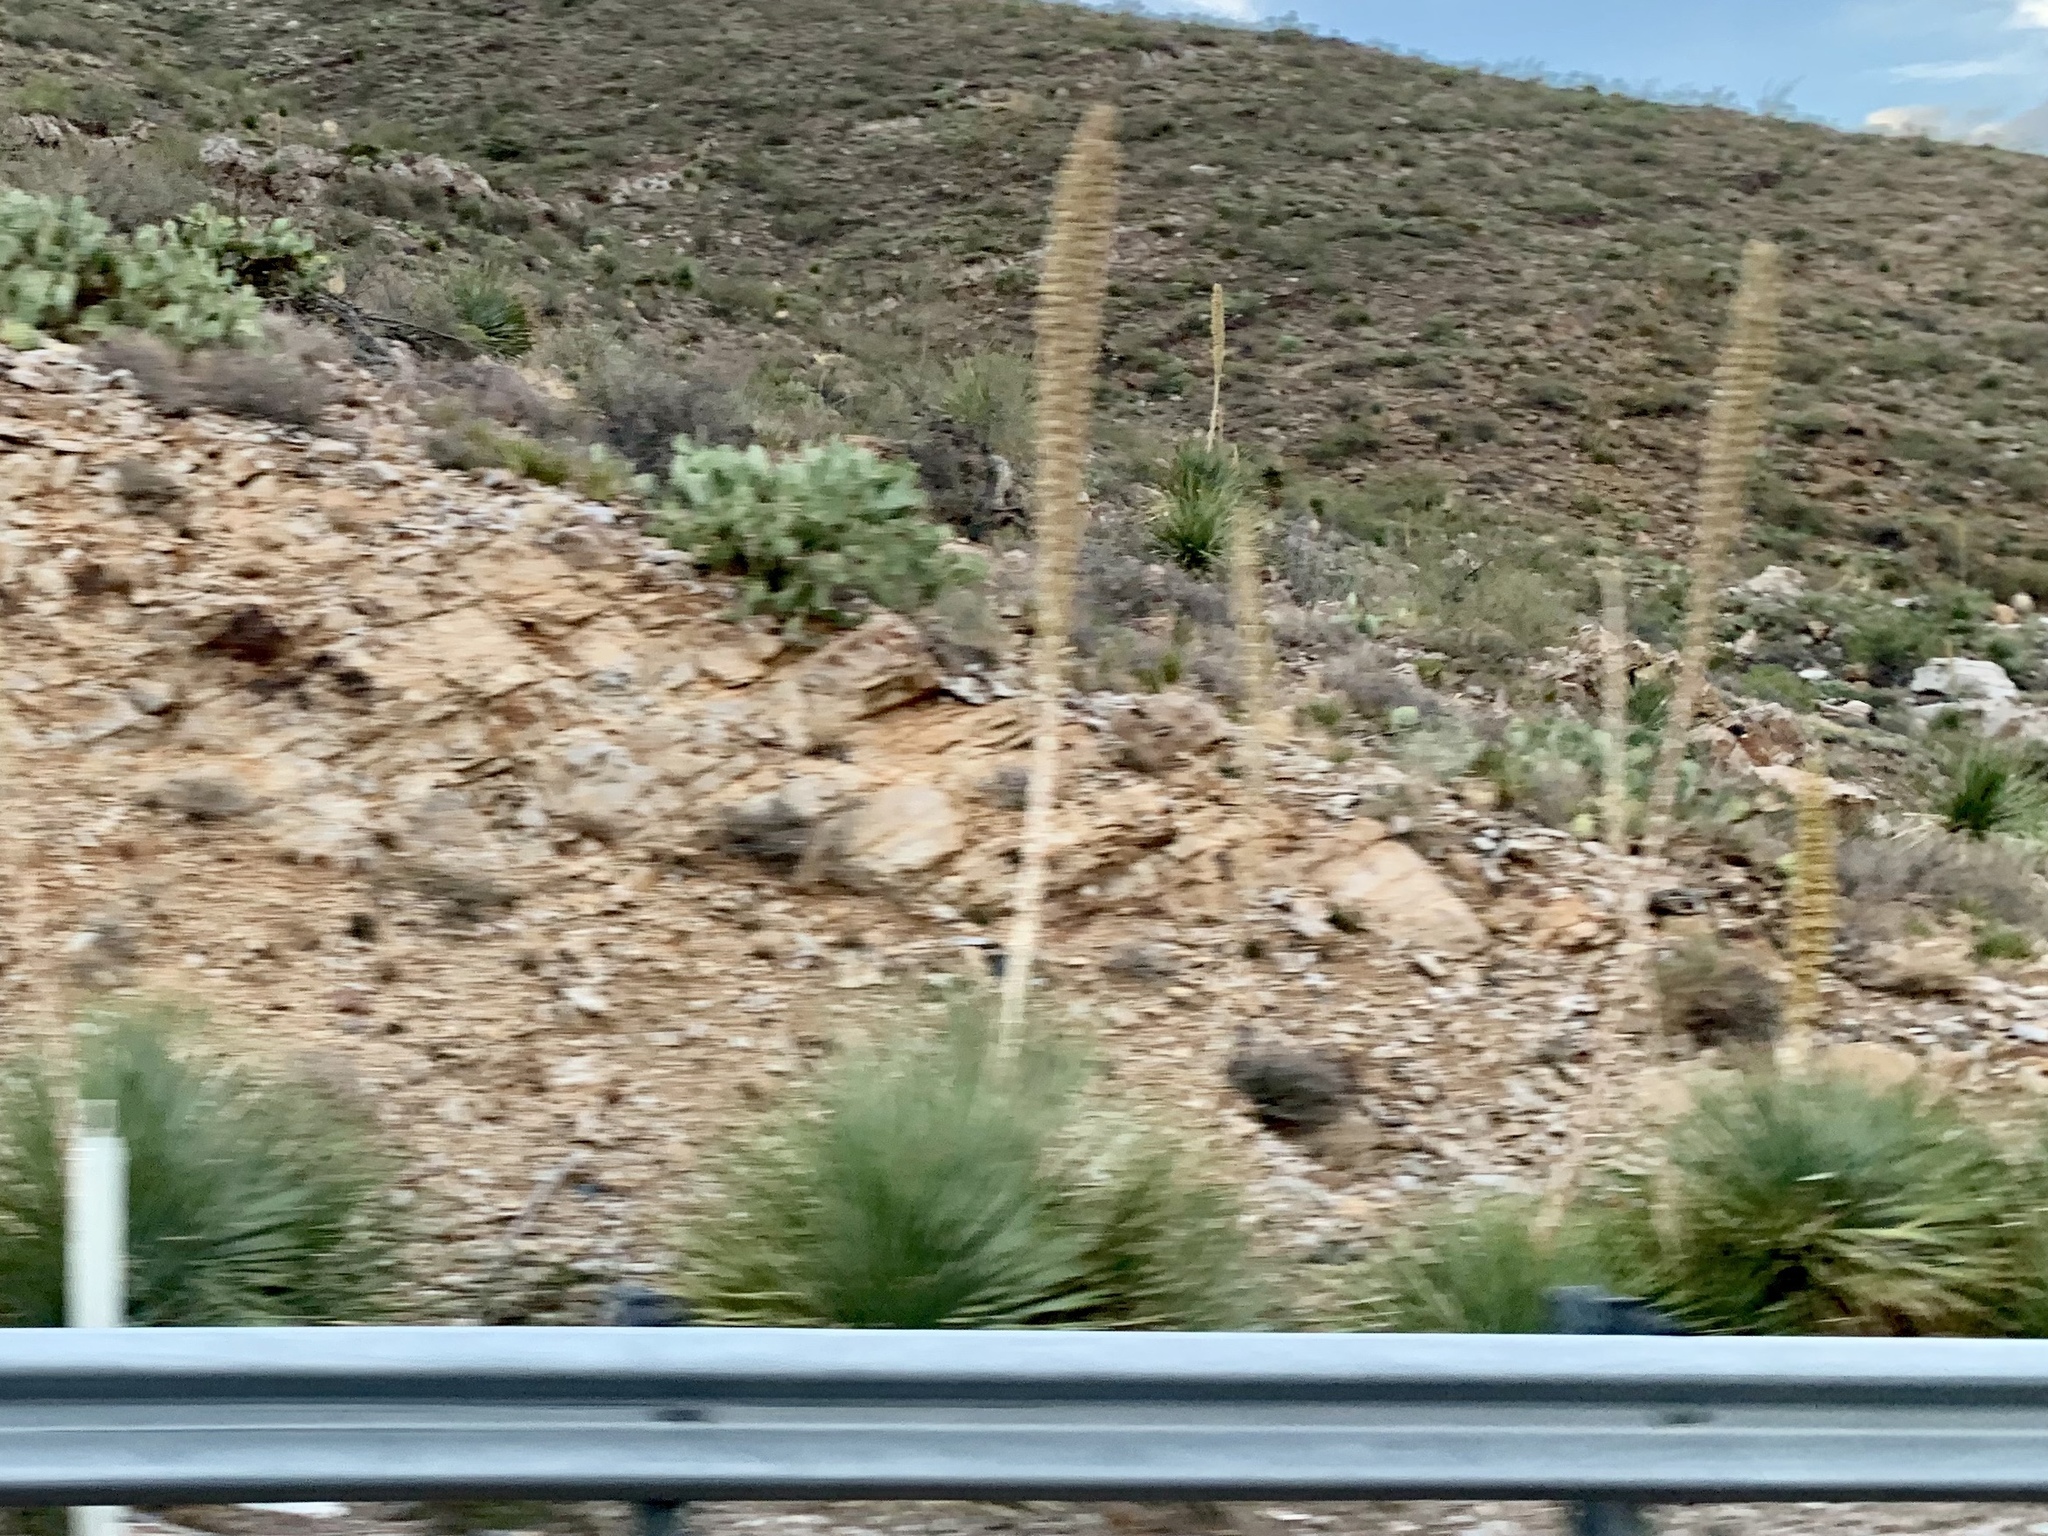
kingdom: Plantae
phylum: Tracheophyta
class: Liliopsida
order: Asparagales
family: Asparagaceae
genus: Dasylirion
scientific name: Dasylirion wheeleri
